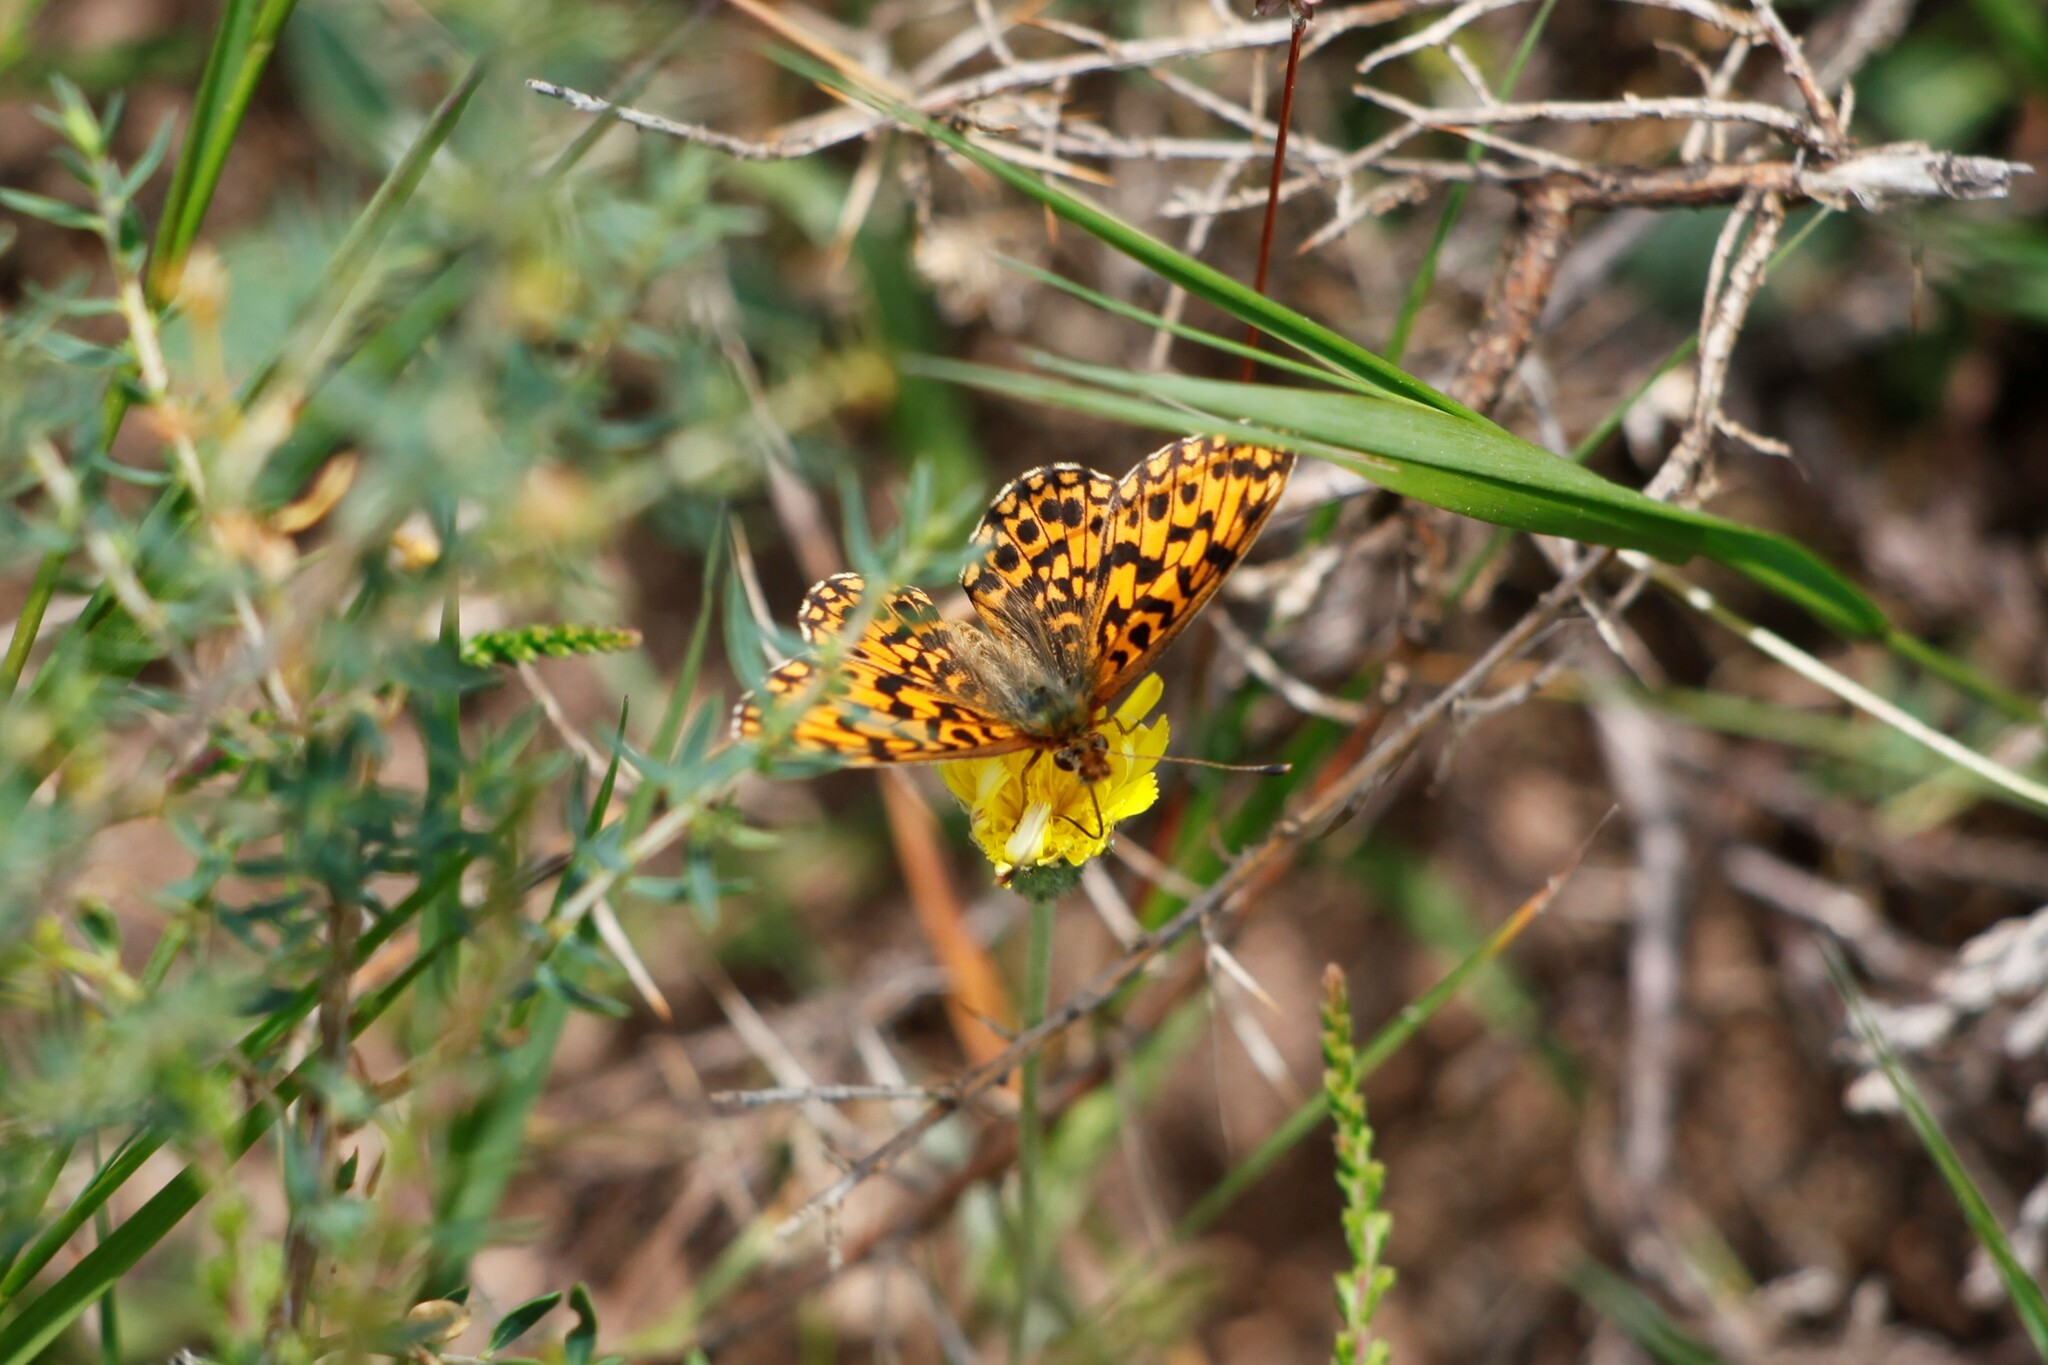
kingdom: Animalia
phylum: Arthropoda
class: Insecta
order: Lepidoptera
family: Nymphalidae
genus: Boloria
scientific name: Boloria dia
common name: Weaver's fritillary
